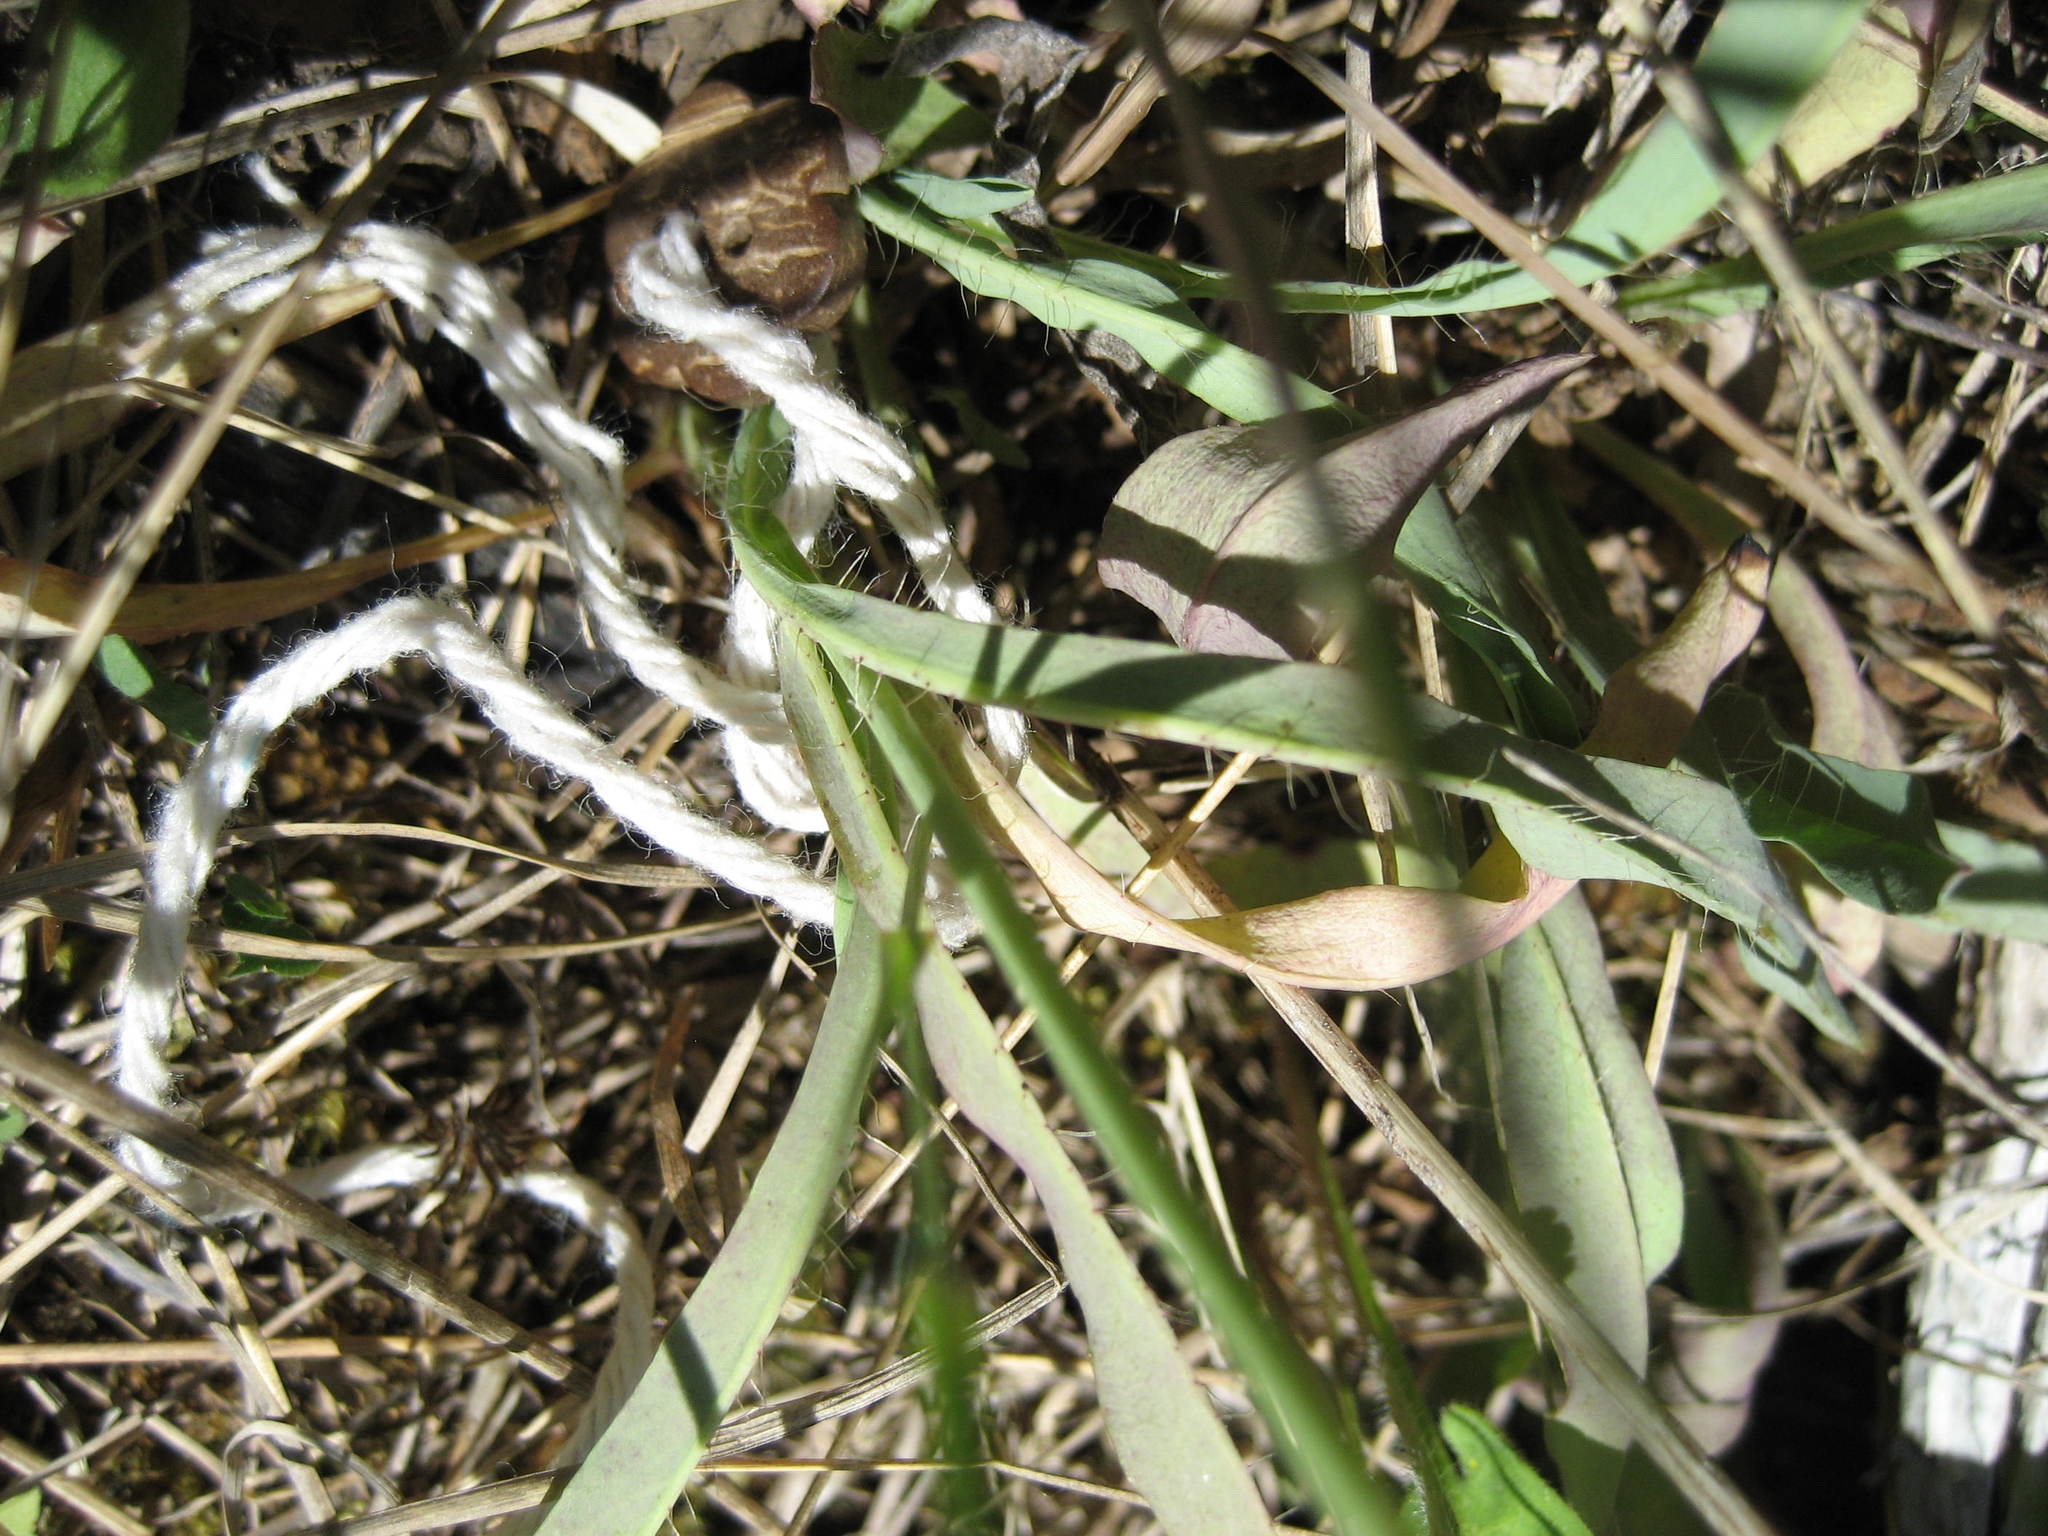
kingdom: Plantae
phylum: Tracheophyta
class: Magnoliopsida
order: Asterales
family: Asteraceae
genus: Pilosella
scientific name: Pilosella piloselloides
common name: Glaucous king-devil
